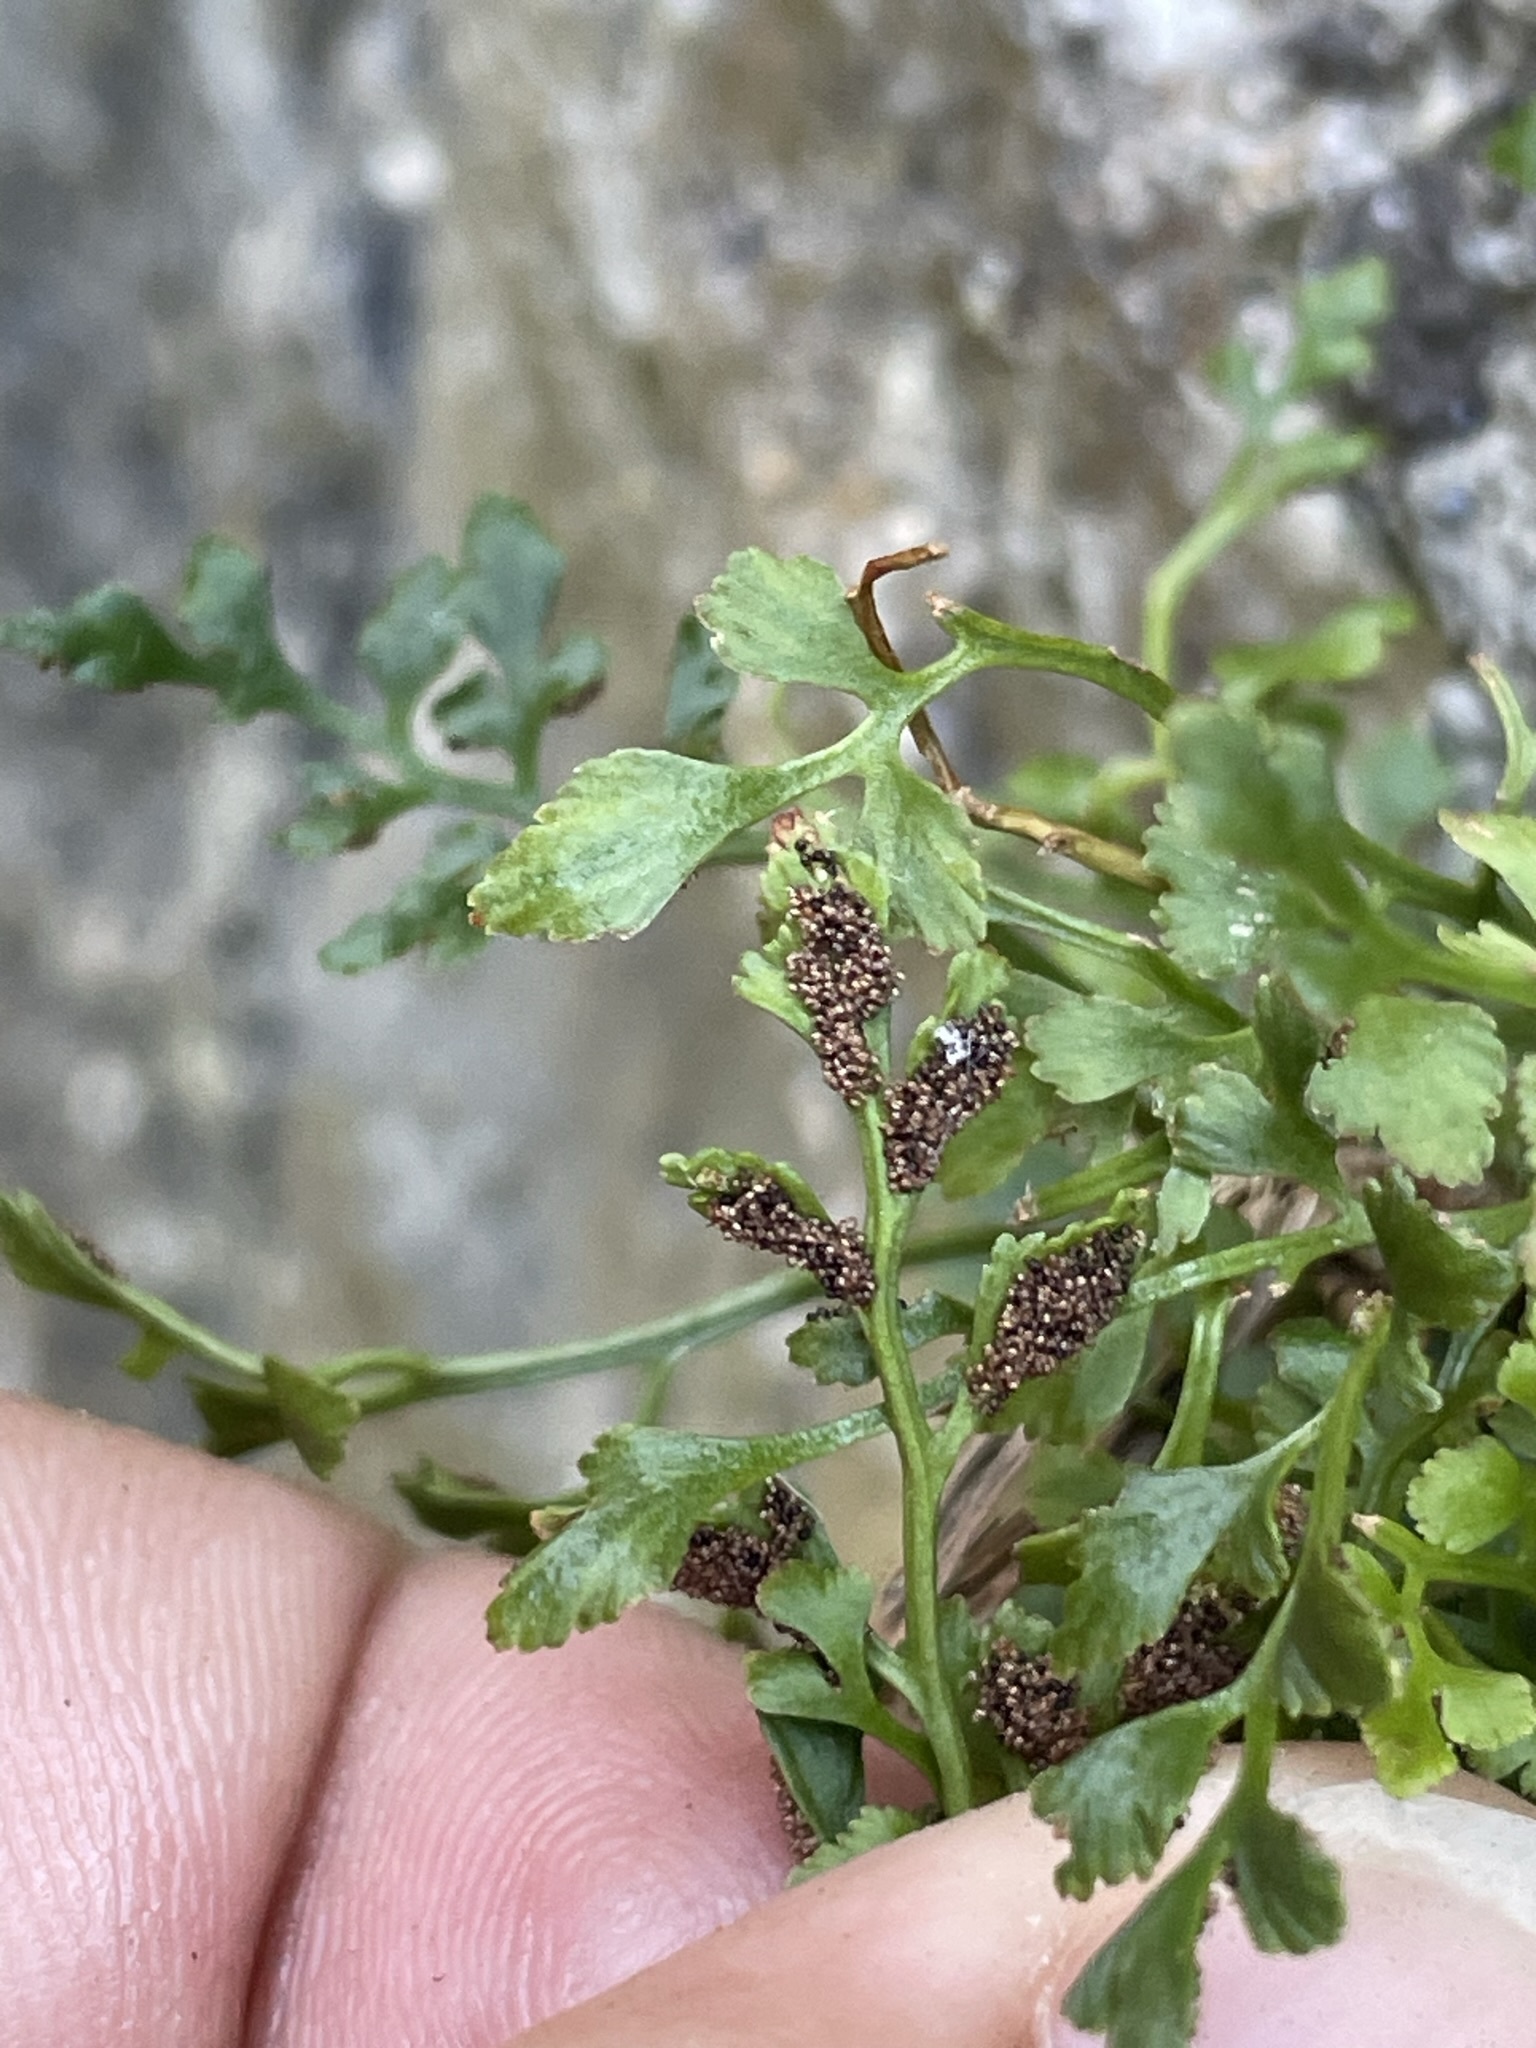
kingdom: Plantae
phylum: Tracheophyta
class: Polypodiopsida
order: Polypodiales
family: Aspleniaceae
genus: Asplenium
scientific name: Asplenium ruta-muraria
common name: Wall-rue
